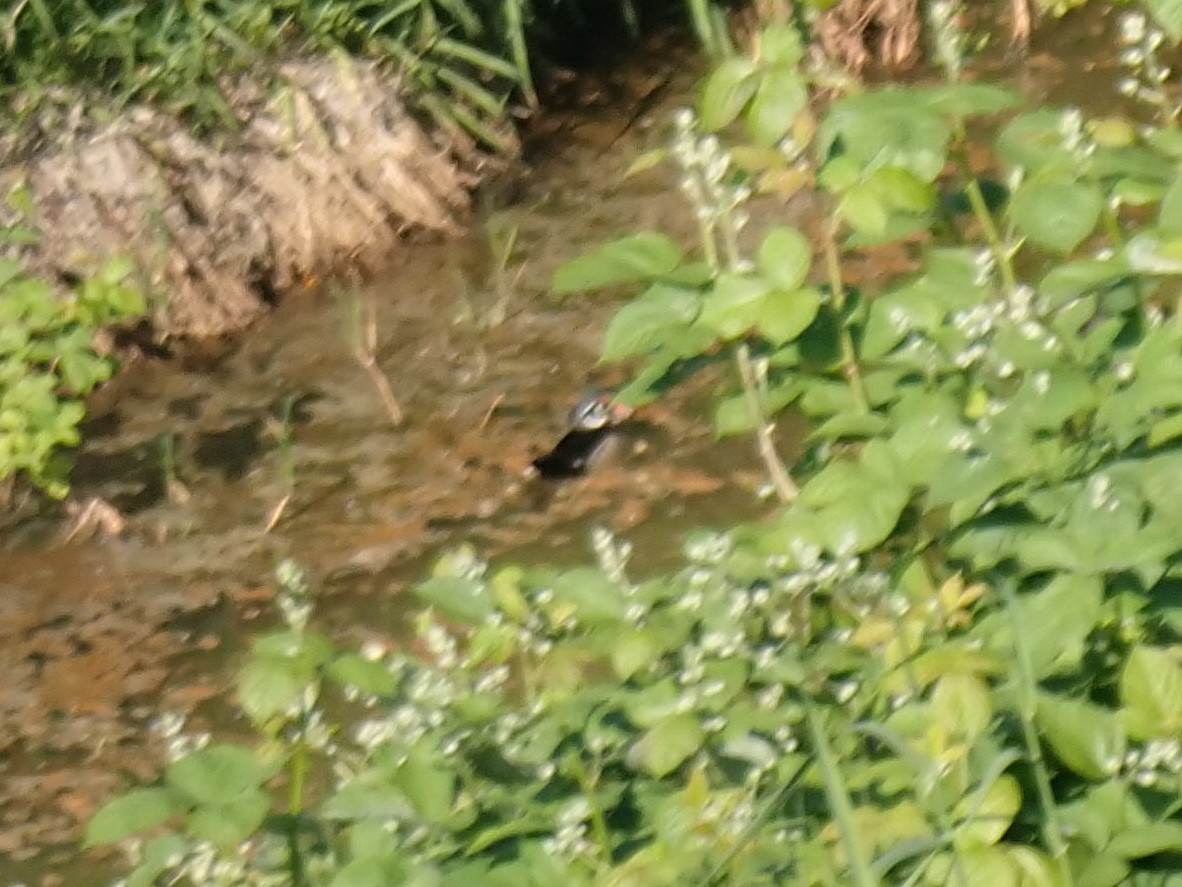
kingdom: Animalia
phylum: Chordata
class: Aves
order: Anseriformes
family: Anatidae
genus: Aix
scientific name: Aix sponsa
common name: Wood duck
